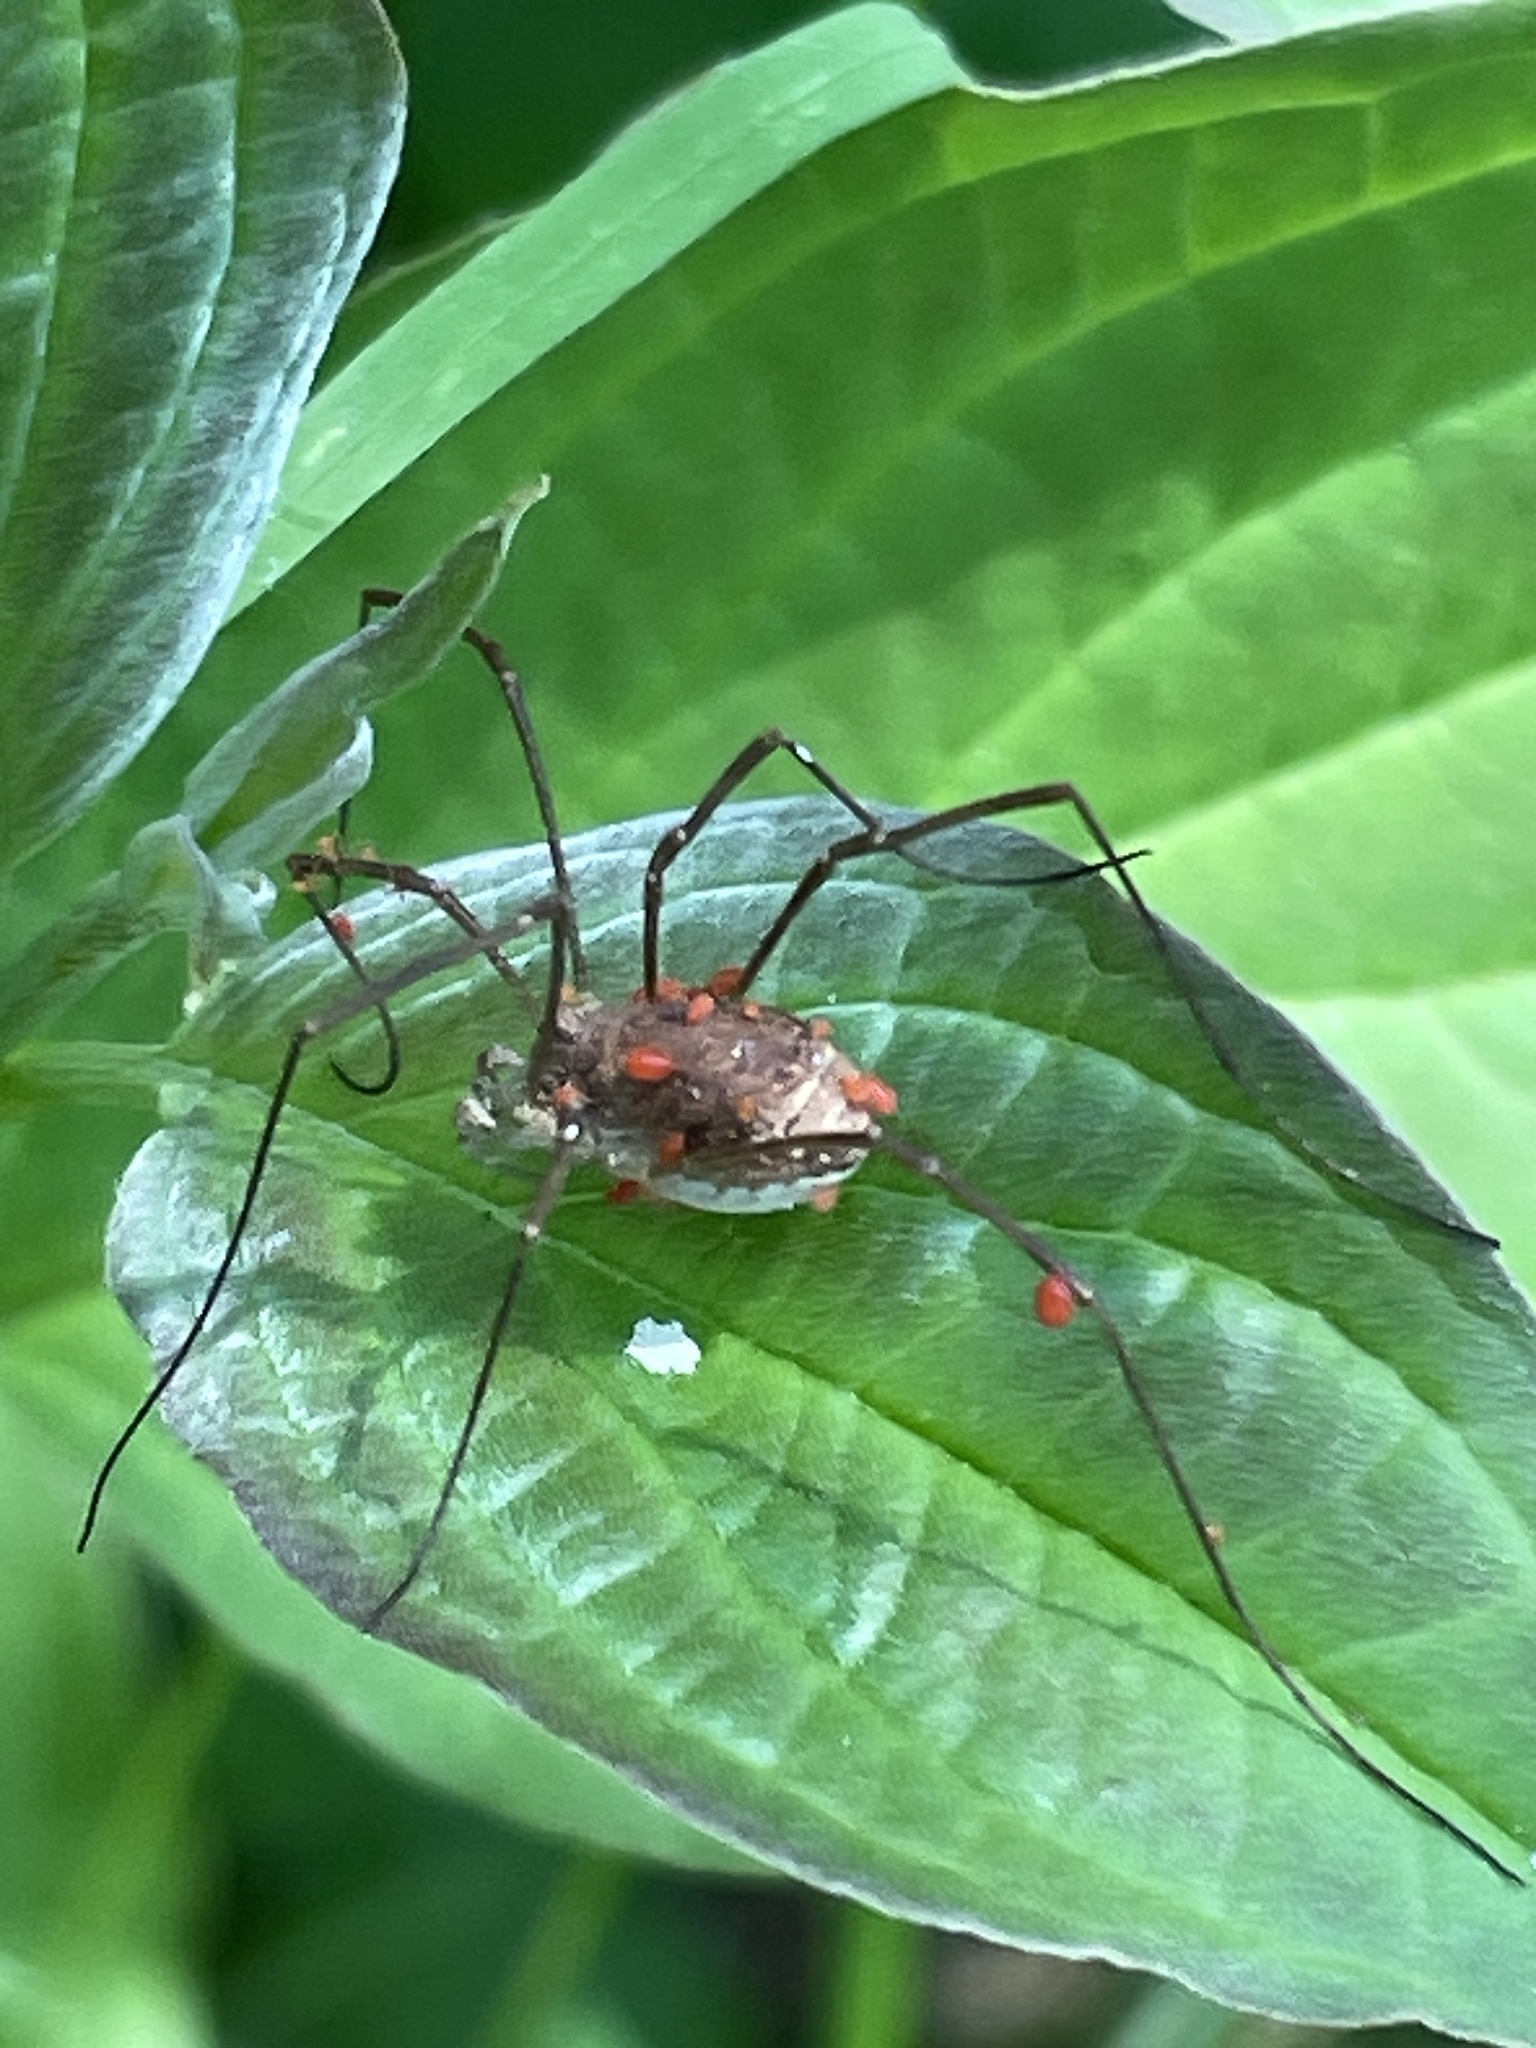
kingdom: Animalia
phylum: Arthropoda
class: Arachnida
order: Opiliones
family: Phalangiidae
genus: Rilaena
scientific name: Rilaena triangularis
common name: Spring harvestman
